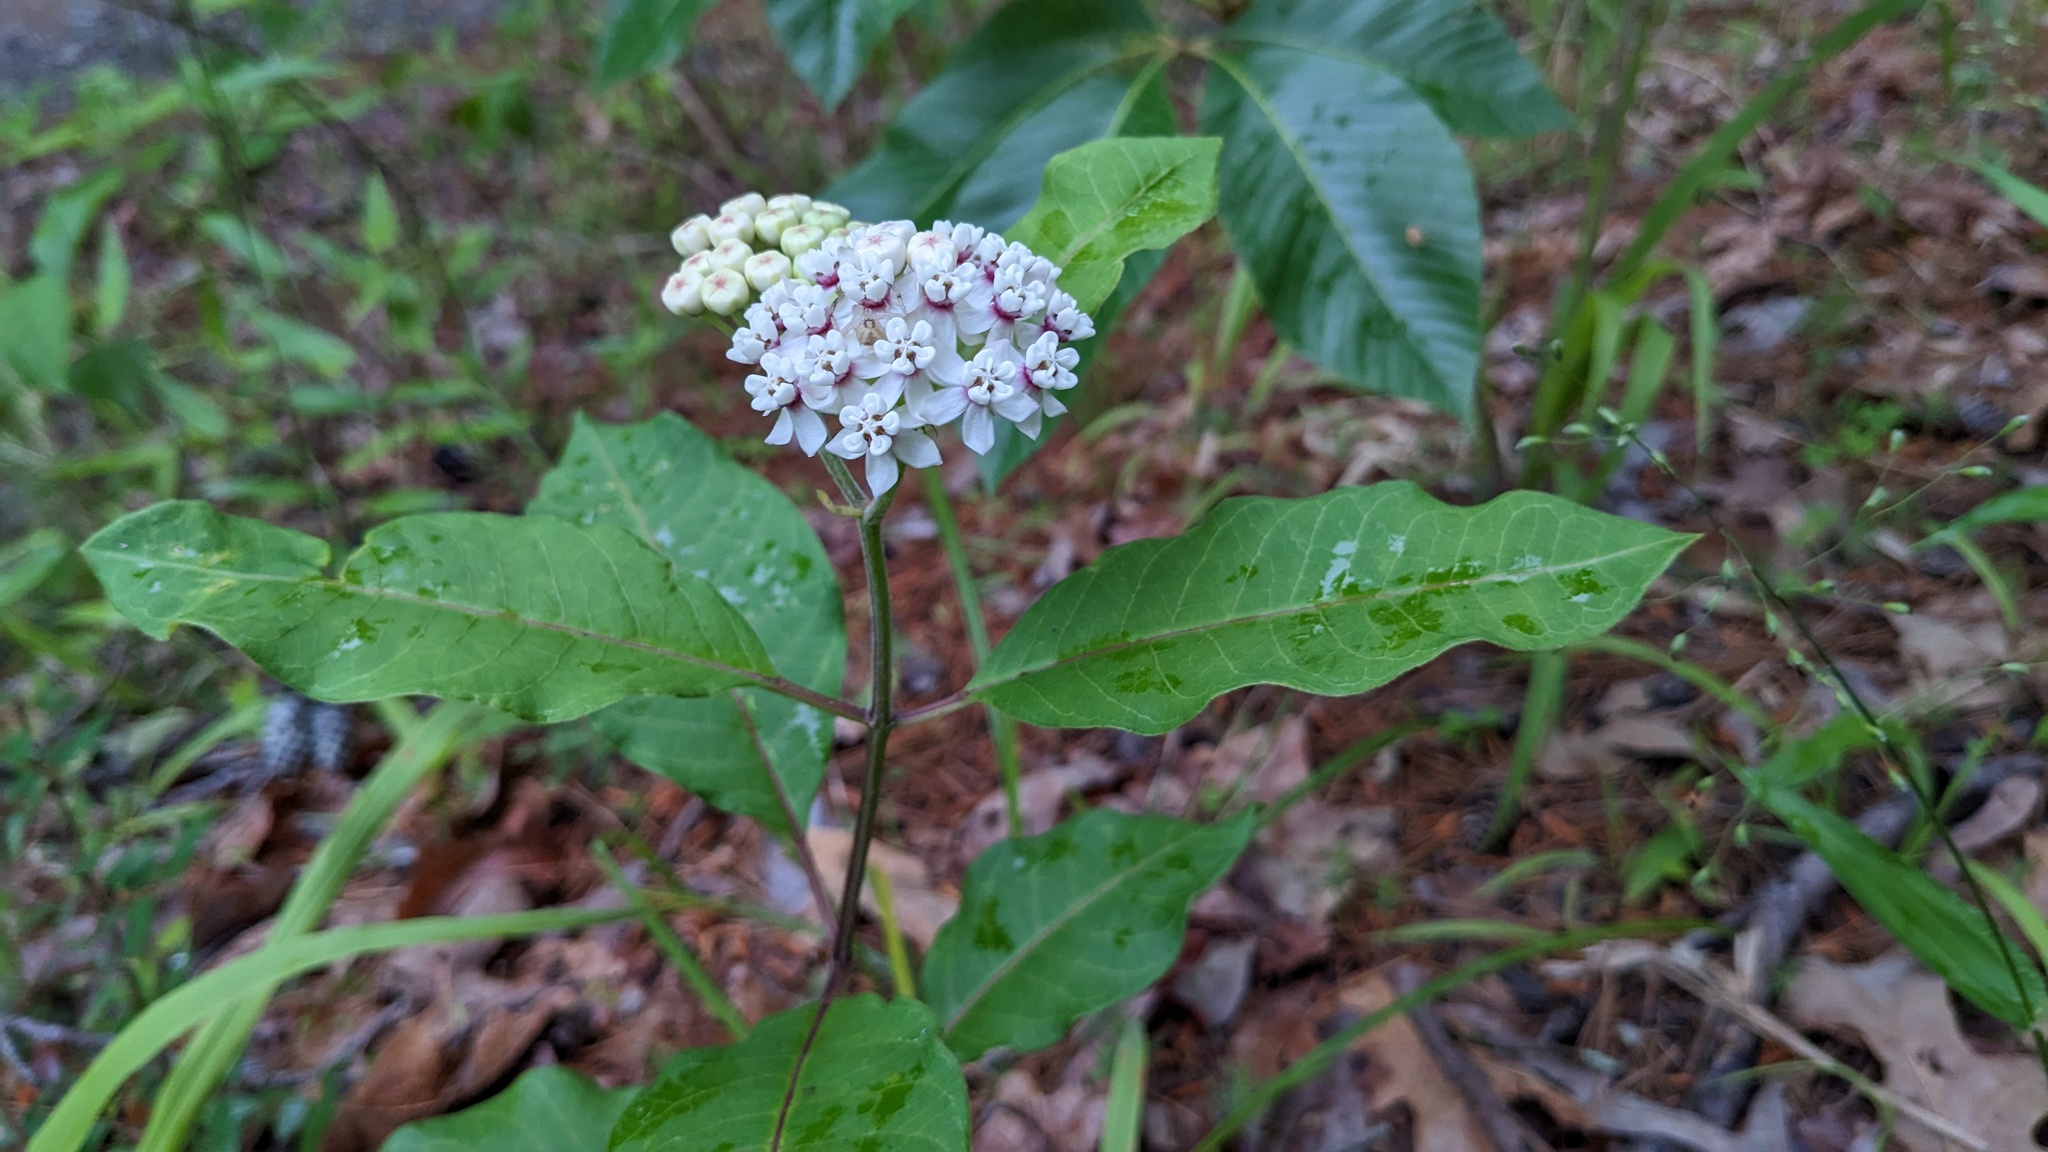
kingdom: Plantae
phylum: Tracheophyta
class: Magnoliopsida
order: Gentianales
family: Apocynaceae
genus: Asclepias
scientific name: Asclepias variegata
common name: Variegated milkweed
